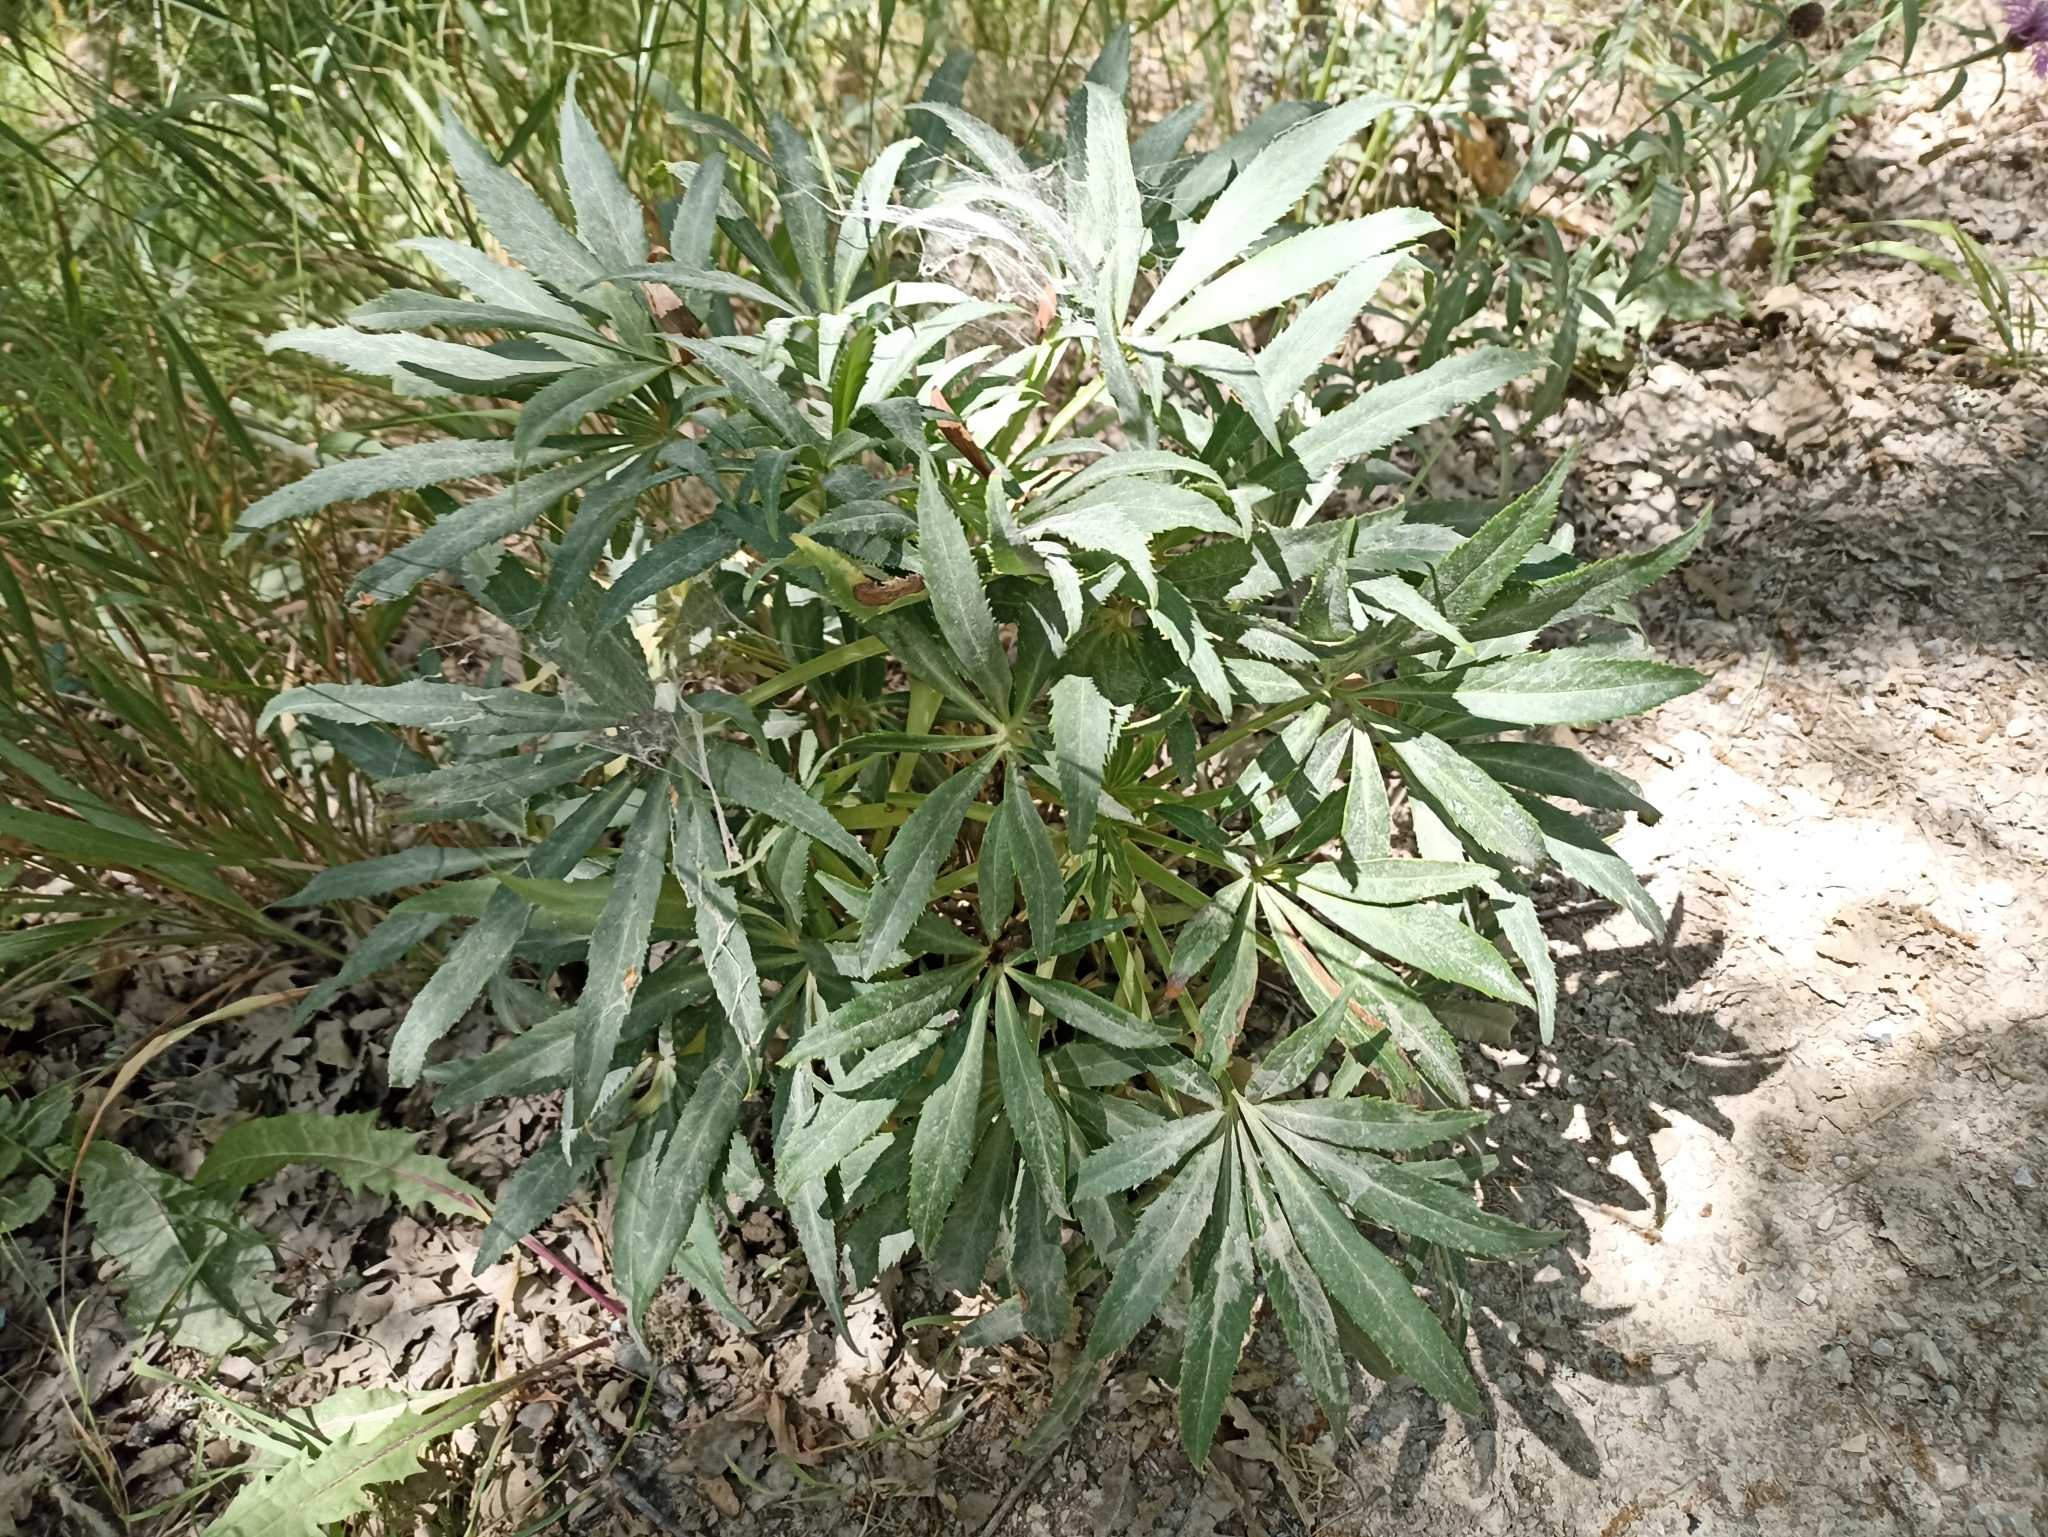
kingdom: Plantae
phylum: Tracheophyta
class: Magnoliopsida
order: Ranunculales
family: Ranunculaceae
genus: Helleborus
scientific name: Helleborus foetidus
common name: Stinking hellebore
